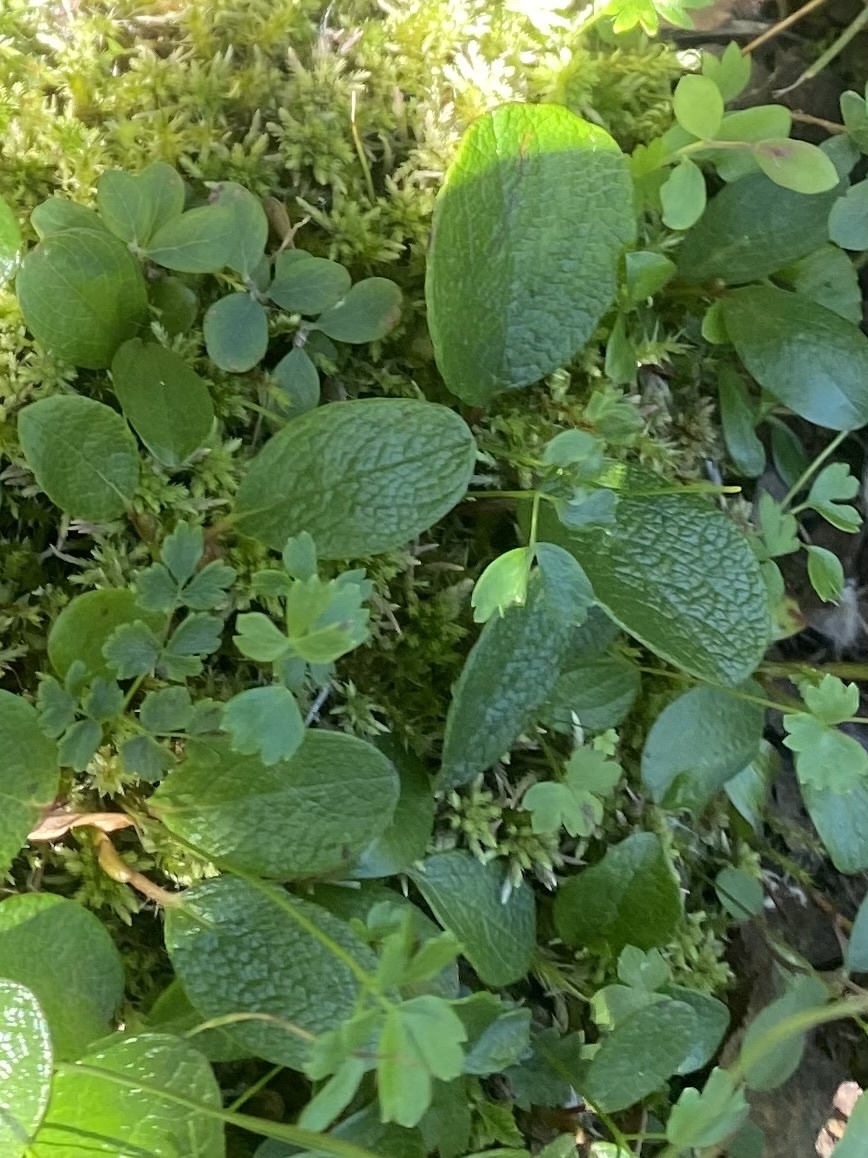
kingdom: Plantae
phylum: Tracheophyta
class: Magnoliopsida
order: Malpighiales
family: Salicaceae
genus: Salix
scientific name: Salix reticulata
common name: Net-leaved willow
